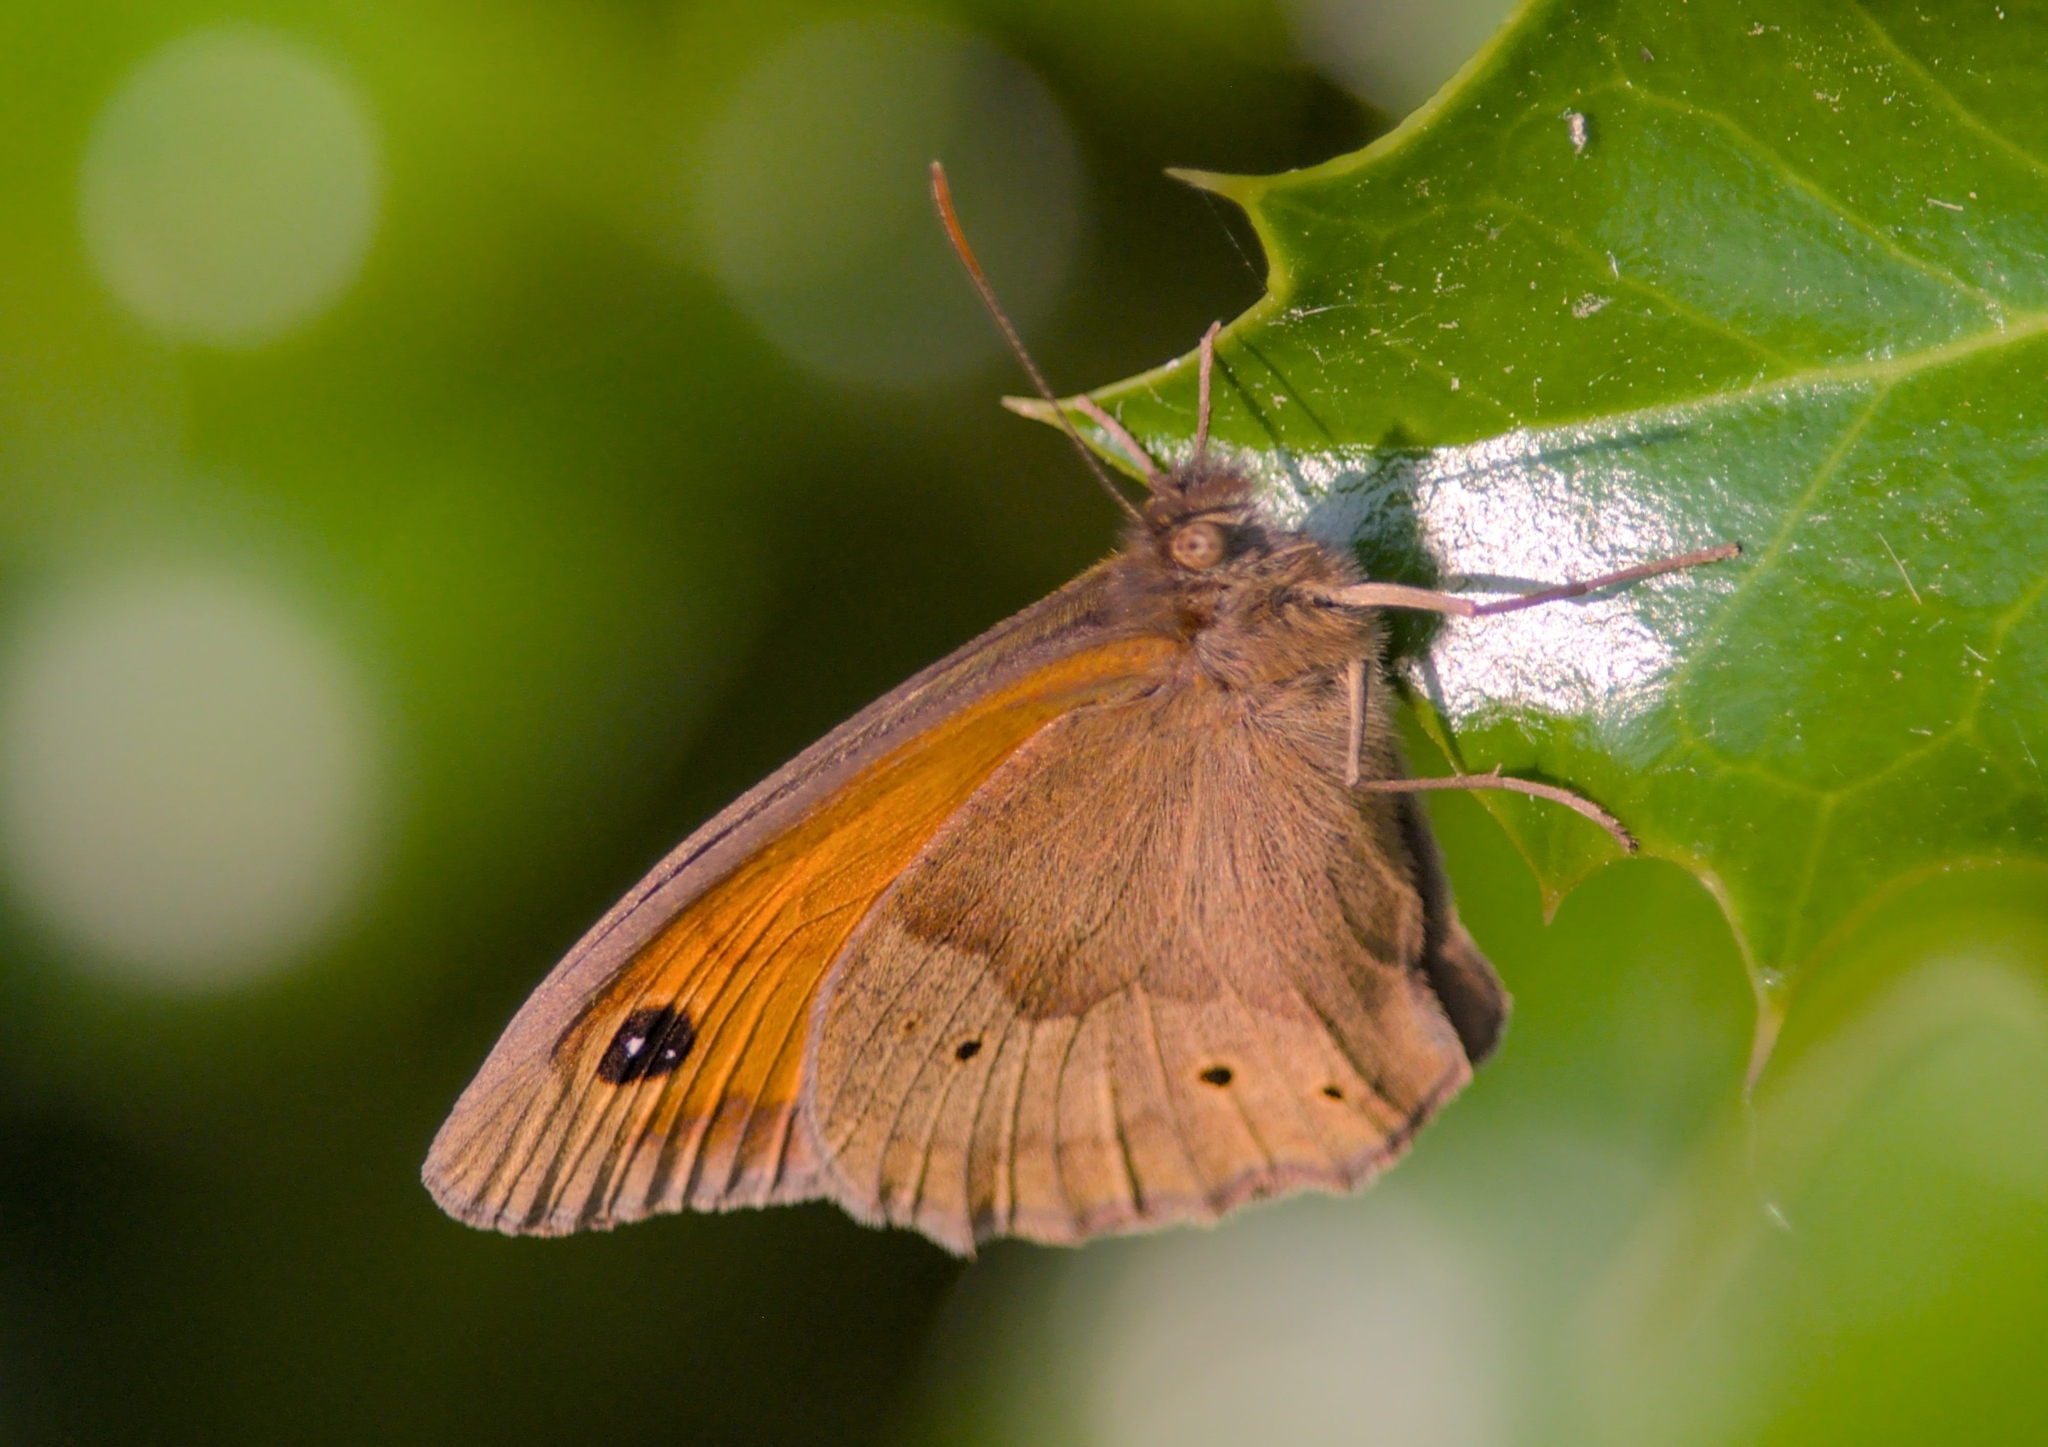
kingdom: Animalia
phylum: Arthropoda
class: Insecta
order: Lepidoptera
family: Nymphalidae
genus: Maniola
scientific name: Maniola jurtina
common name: Meadow brown
